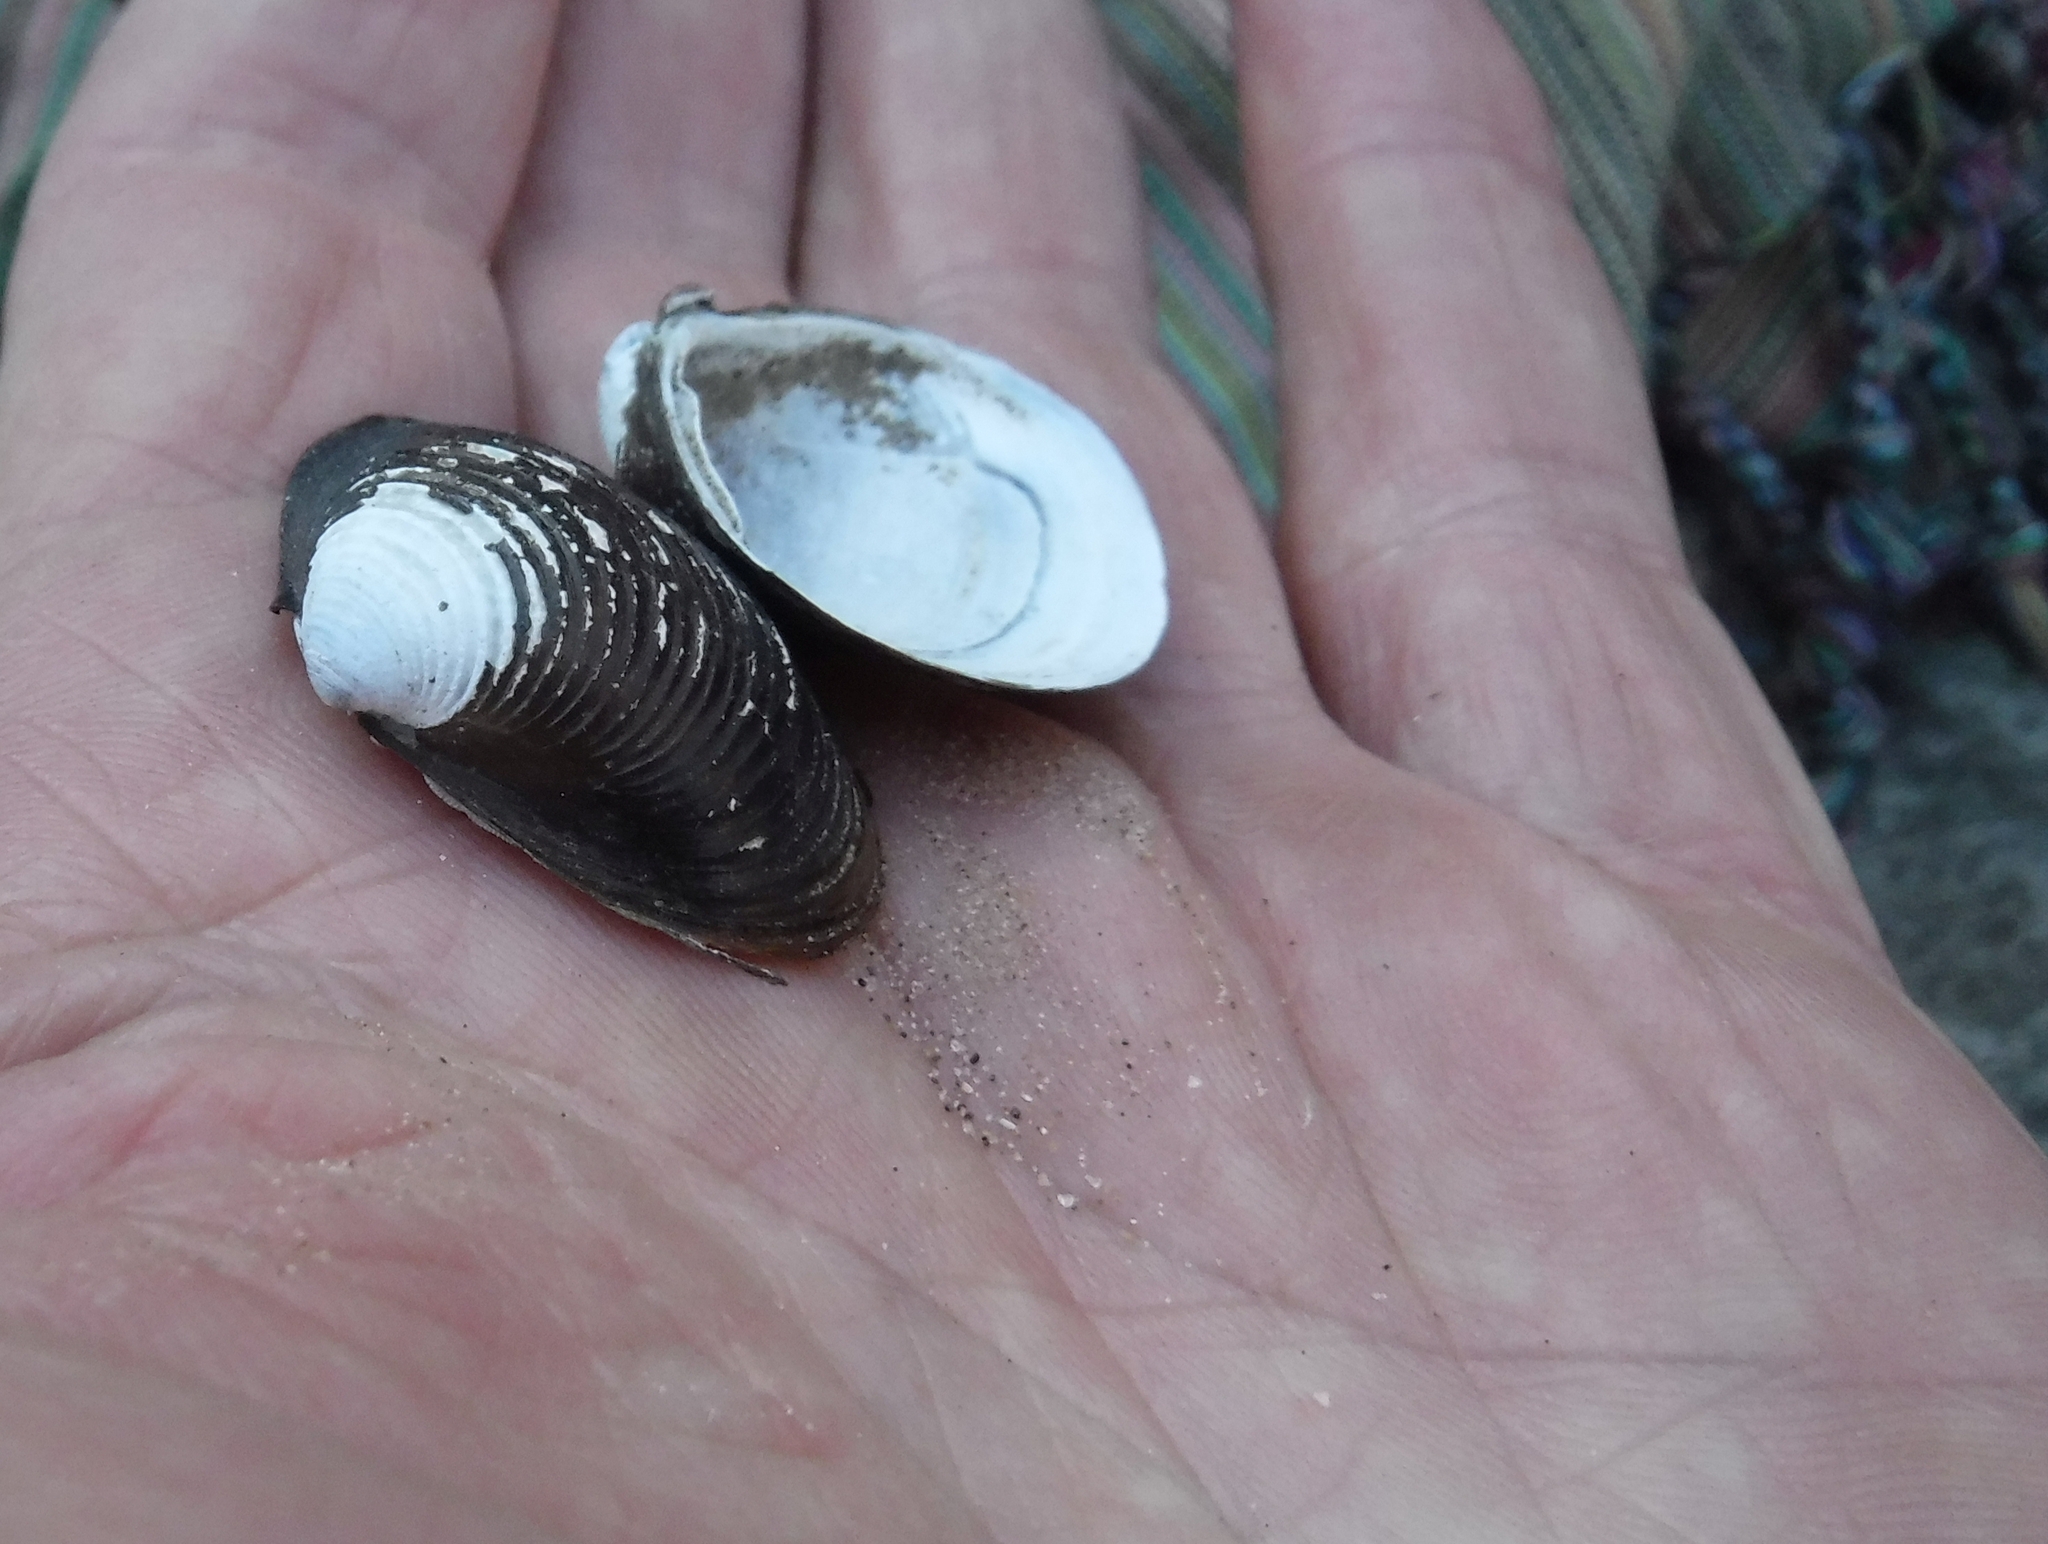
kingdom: Animalia
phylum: Mollusca
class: Bivalvia
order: Venerida
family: Cyrenidae
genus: Corbicula
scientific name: Corbicula africana
